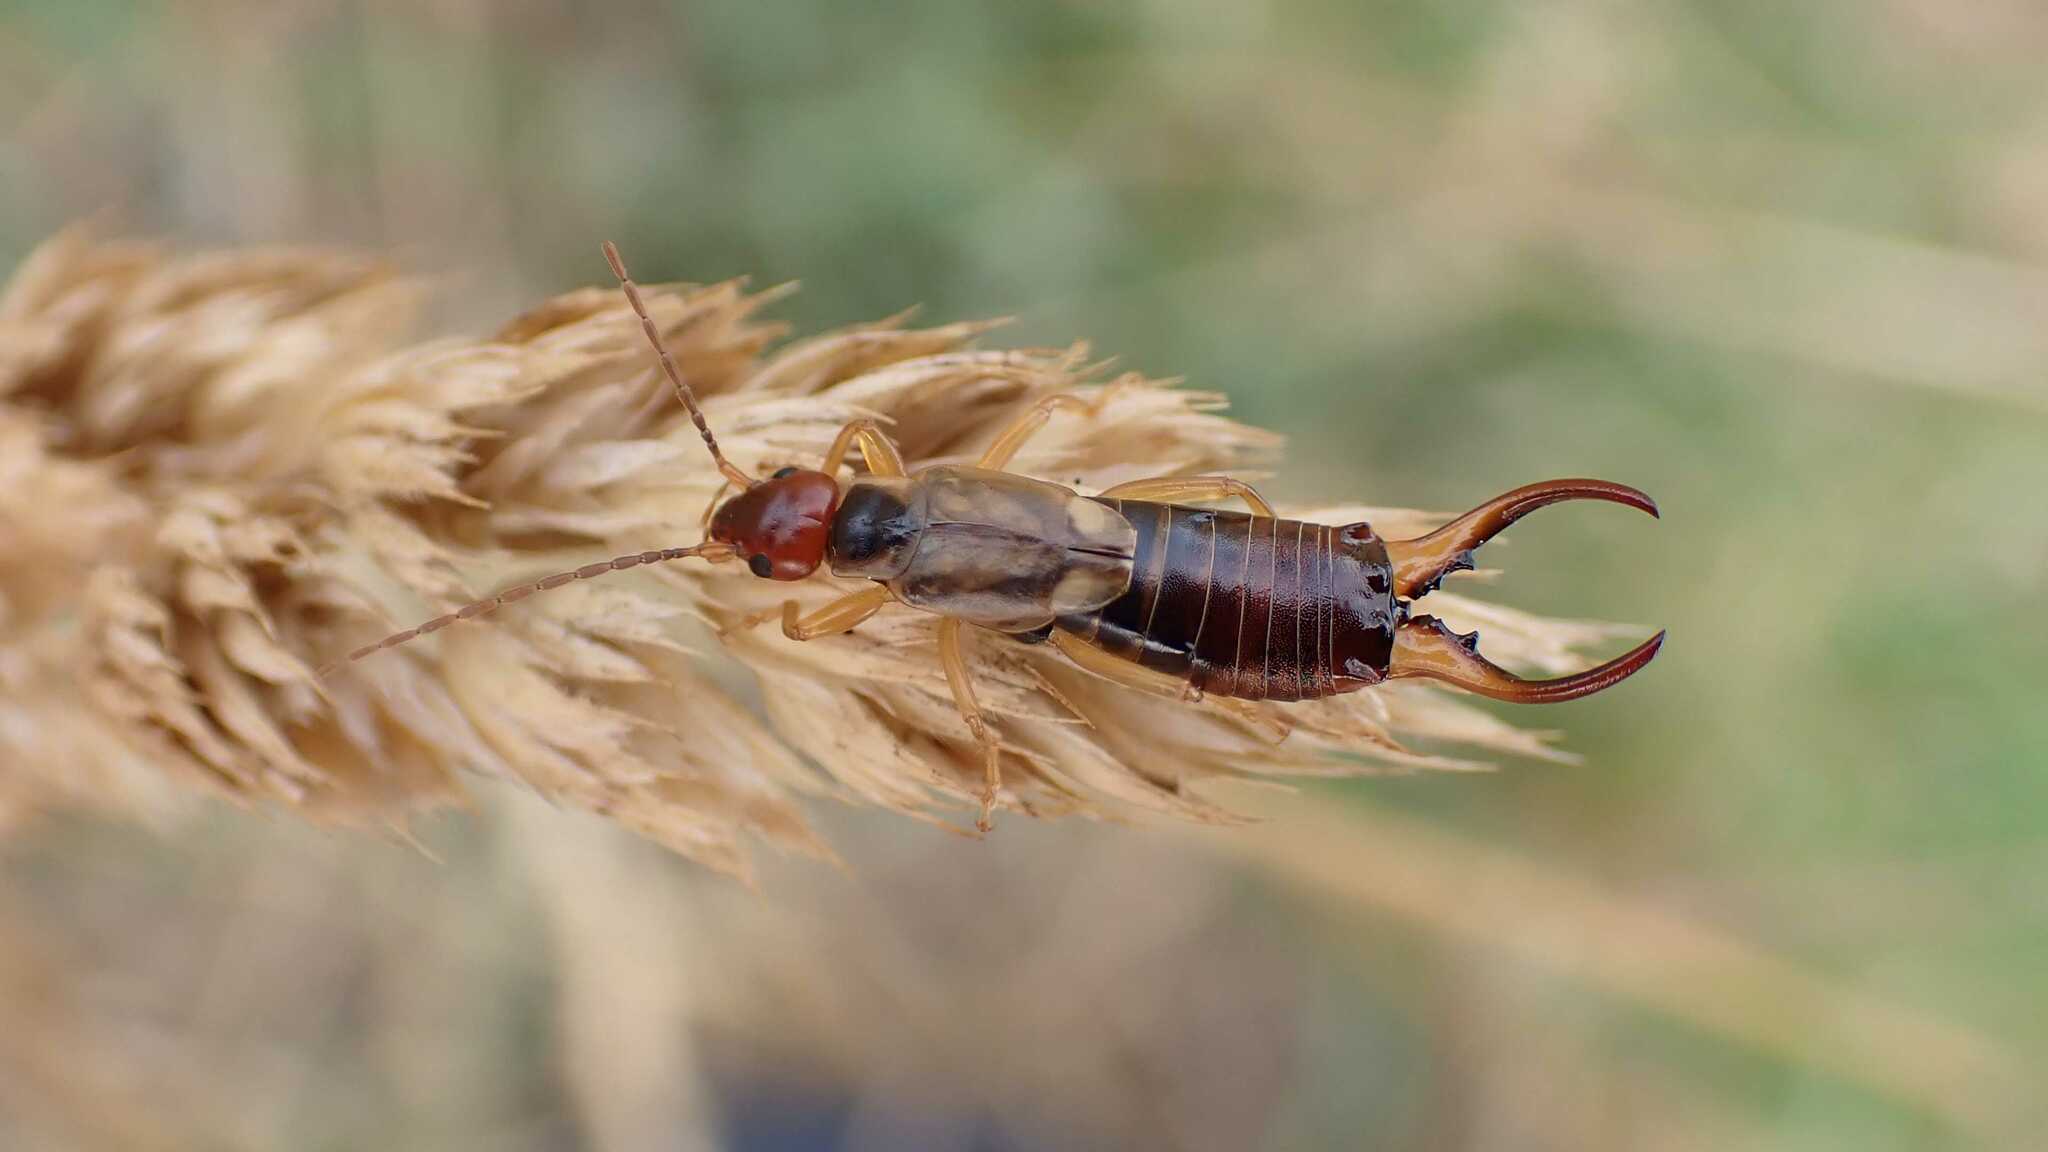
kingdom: Animalia
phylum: Arthropoda
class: Insecta
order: Dermaptera
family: Forficulidae
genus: Forficula
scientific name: Forficula
